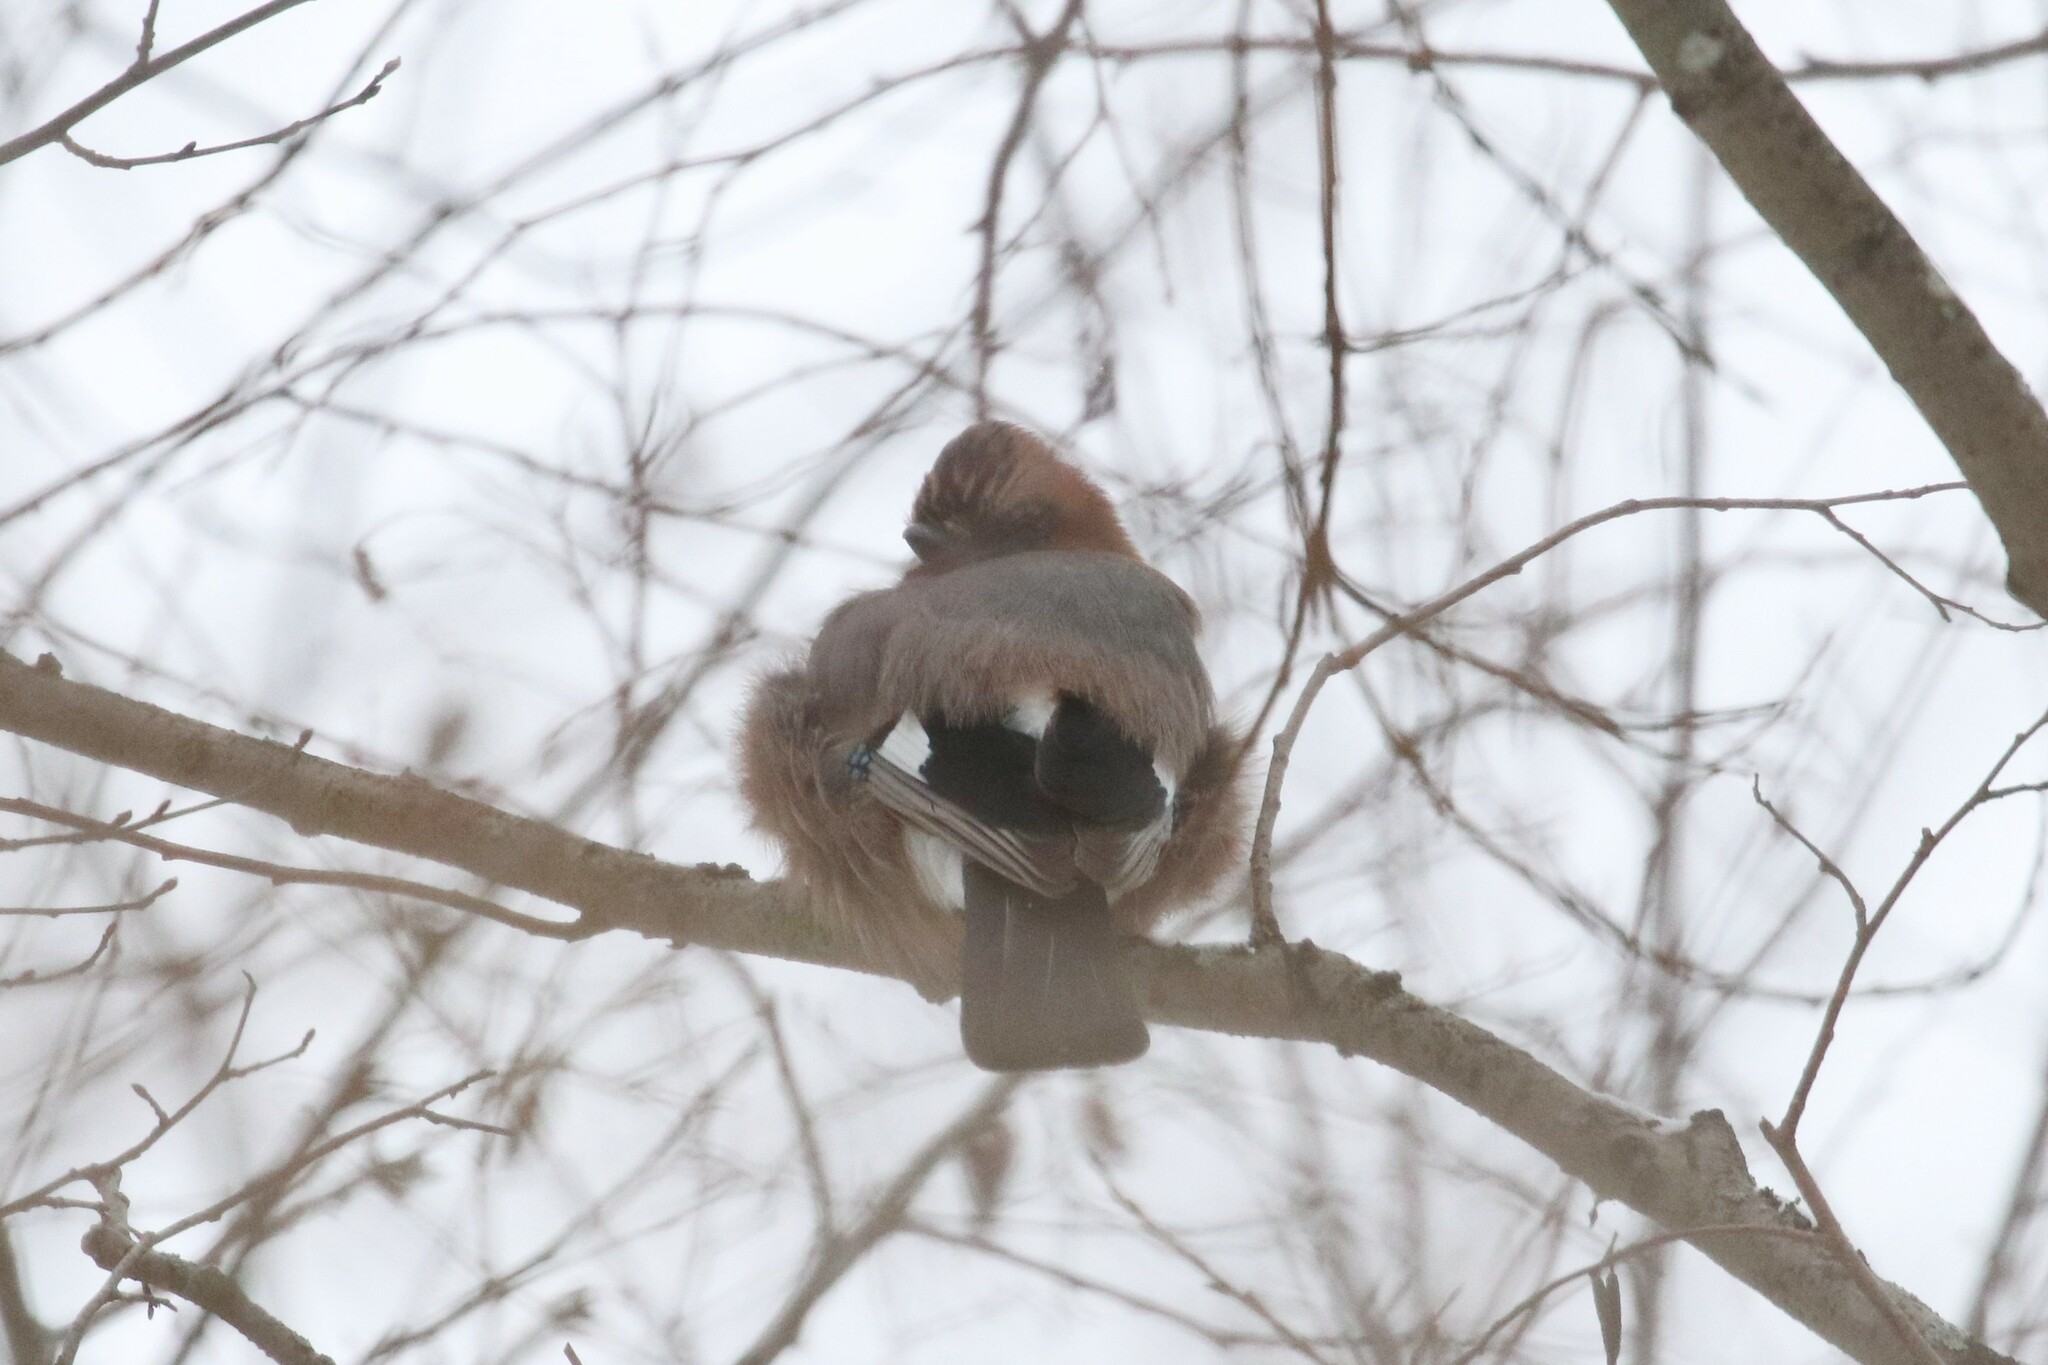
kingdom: Animalia
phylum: Chordata
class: Aves
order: Passeriformes
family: Corvidae
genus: Garrulus
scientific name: Garrulus glandarius
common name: Eurasian jay
